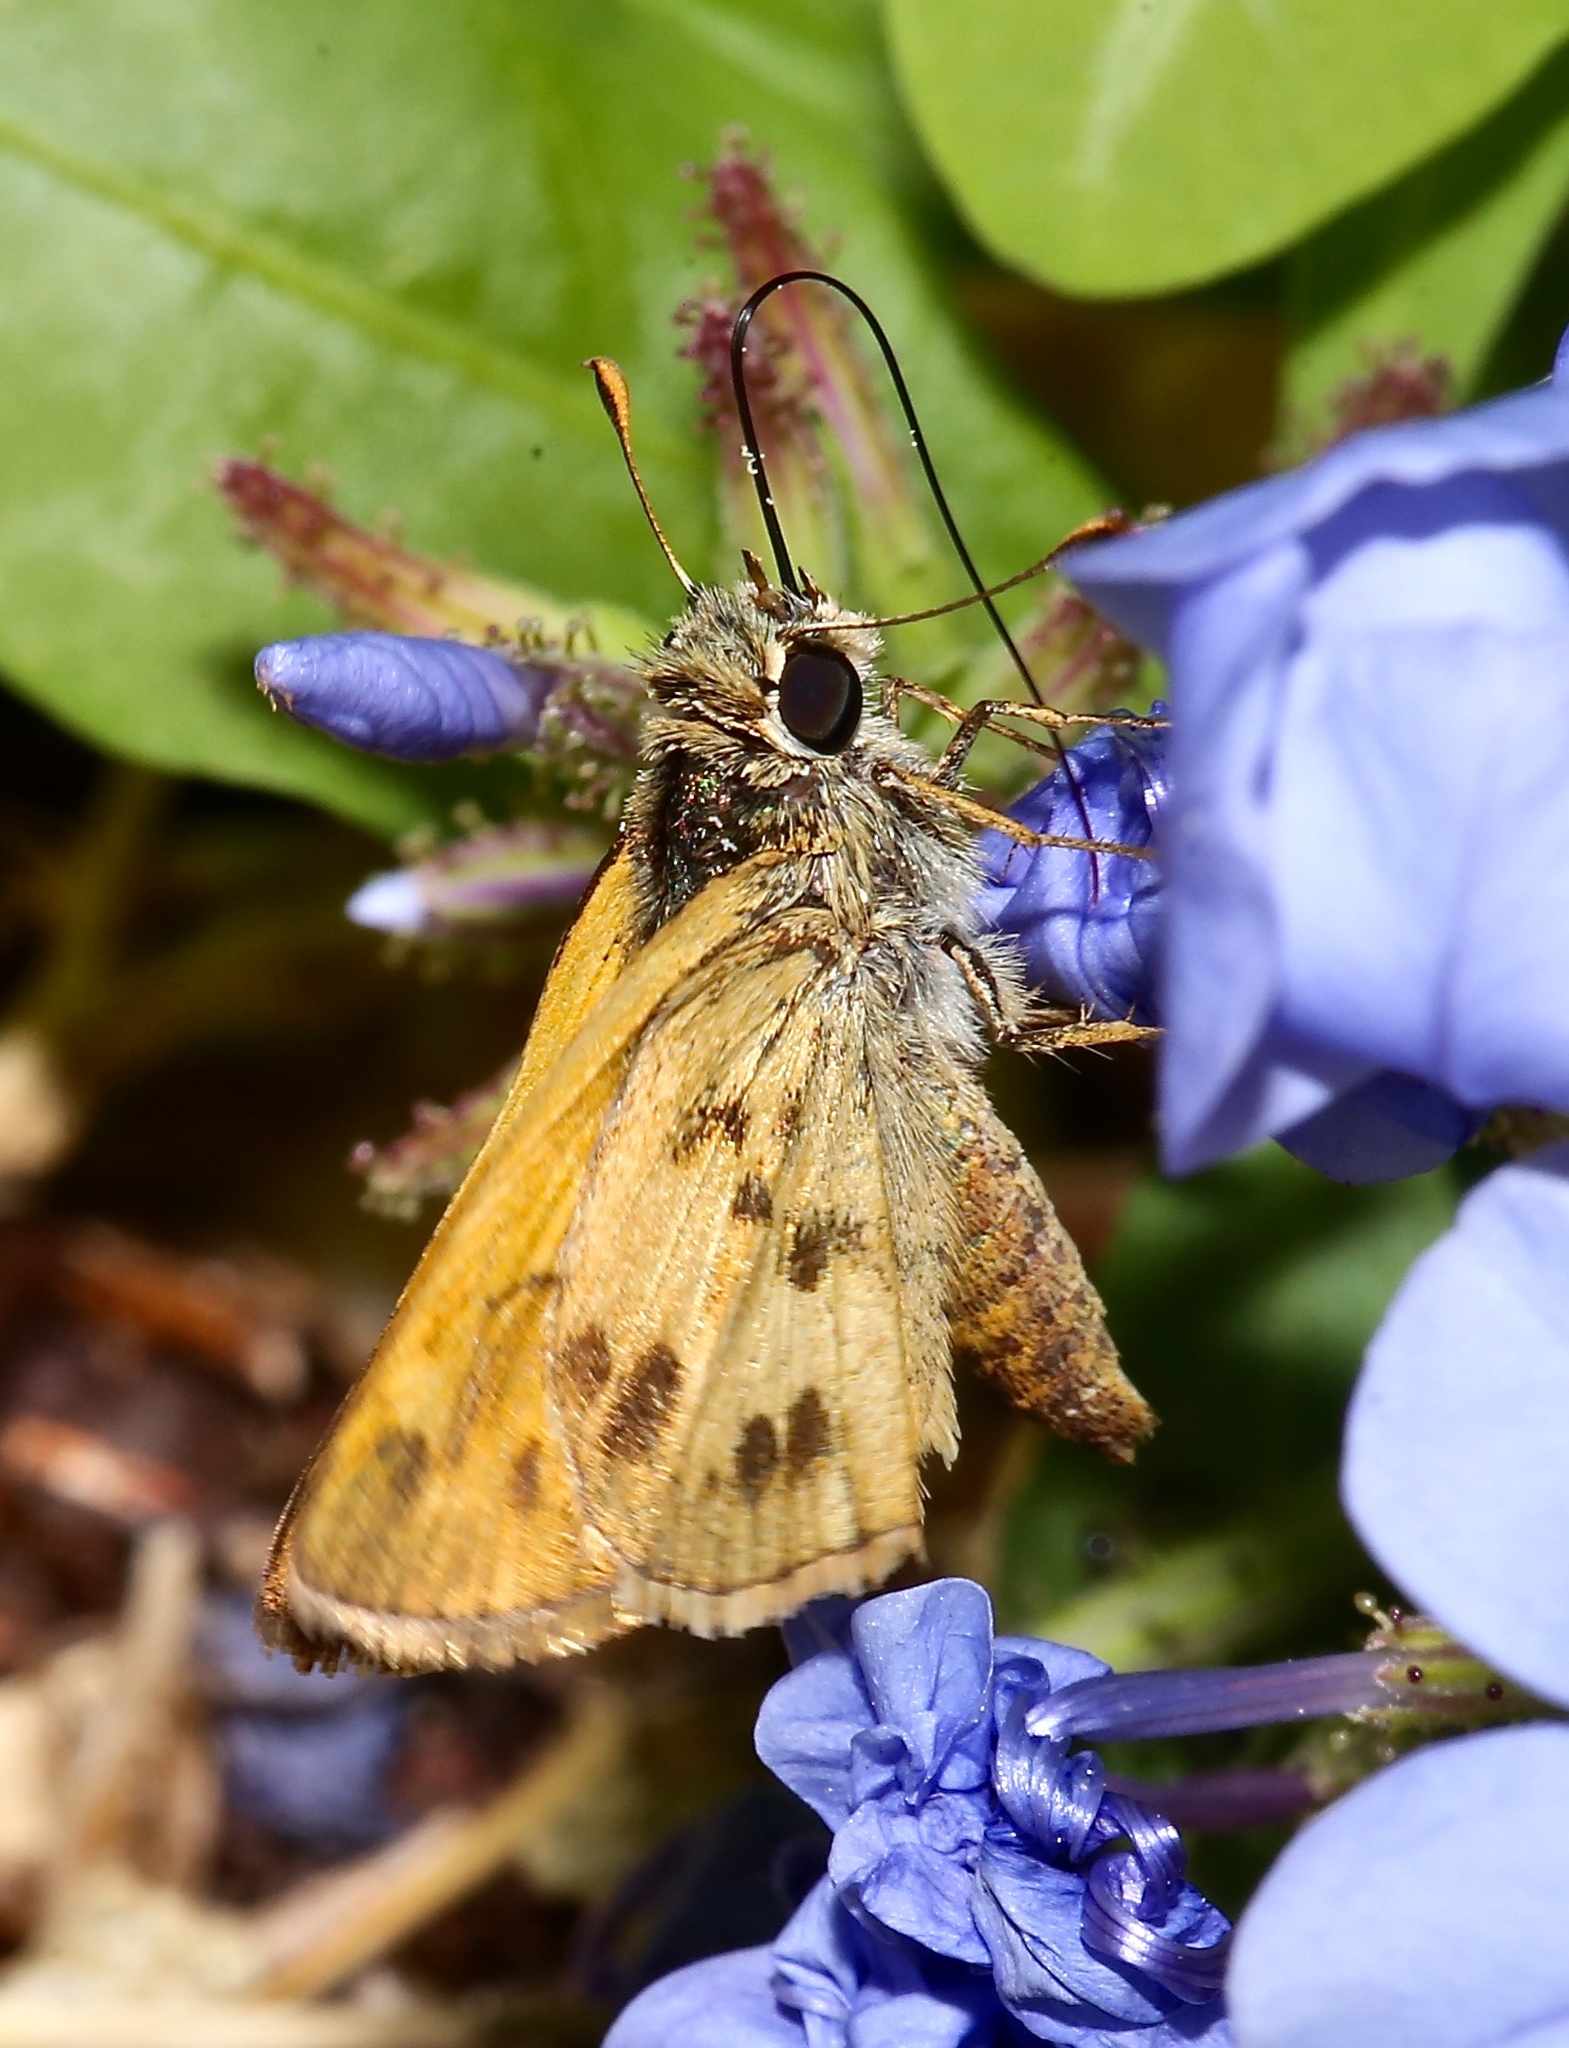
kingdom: Animalia
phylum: Arthropoda
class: Insecta
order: Lepidoptera
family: Hesperiidae
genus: Polites
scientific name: Polites vibex
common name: Whirlabout
